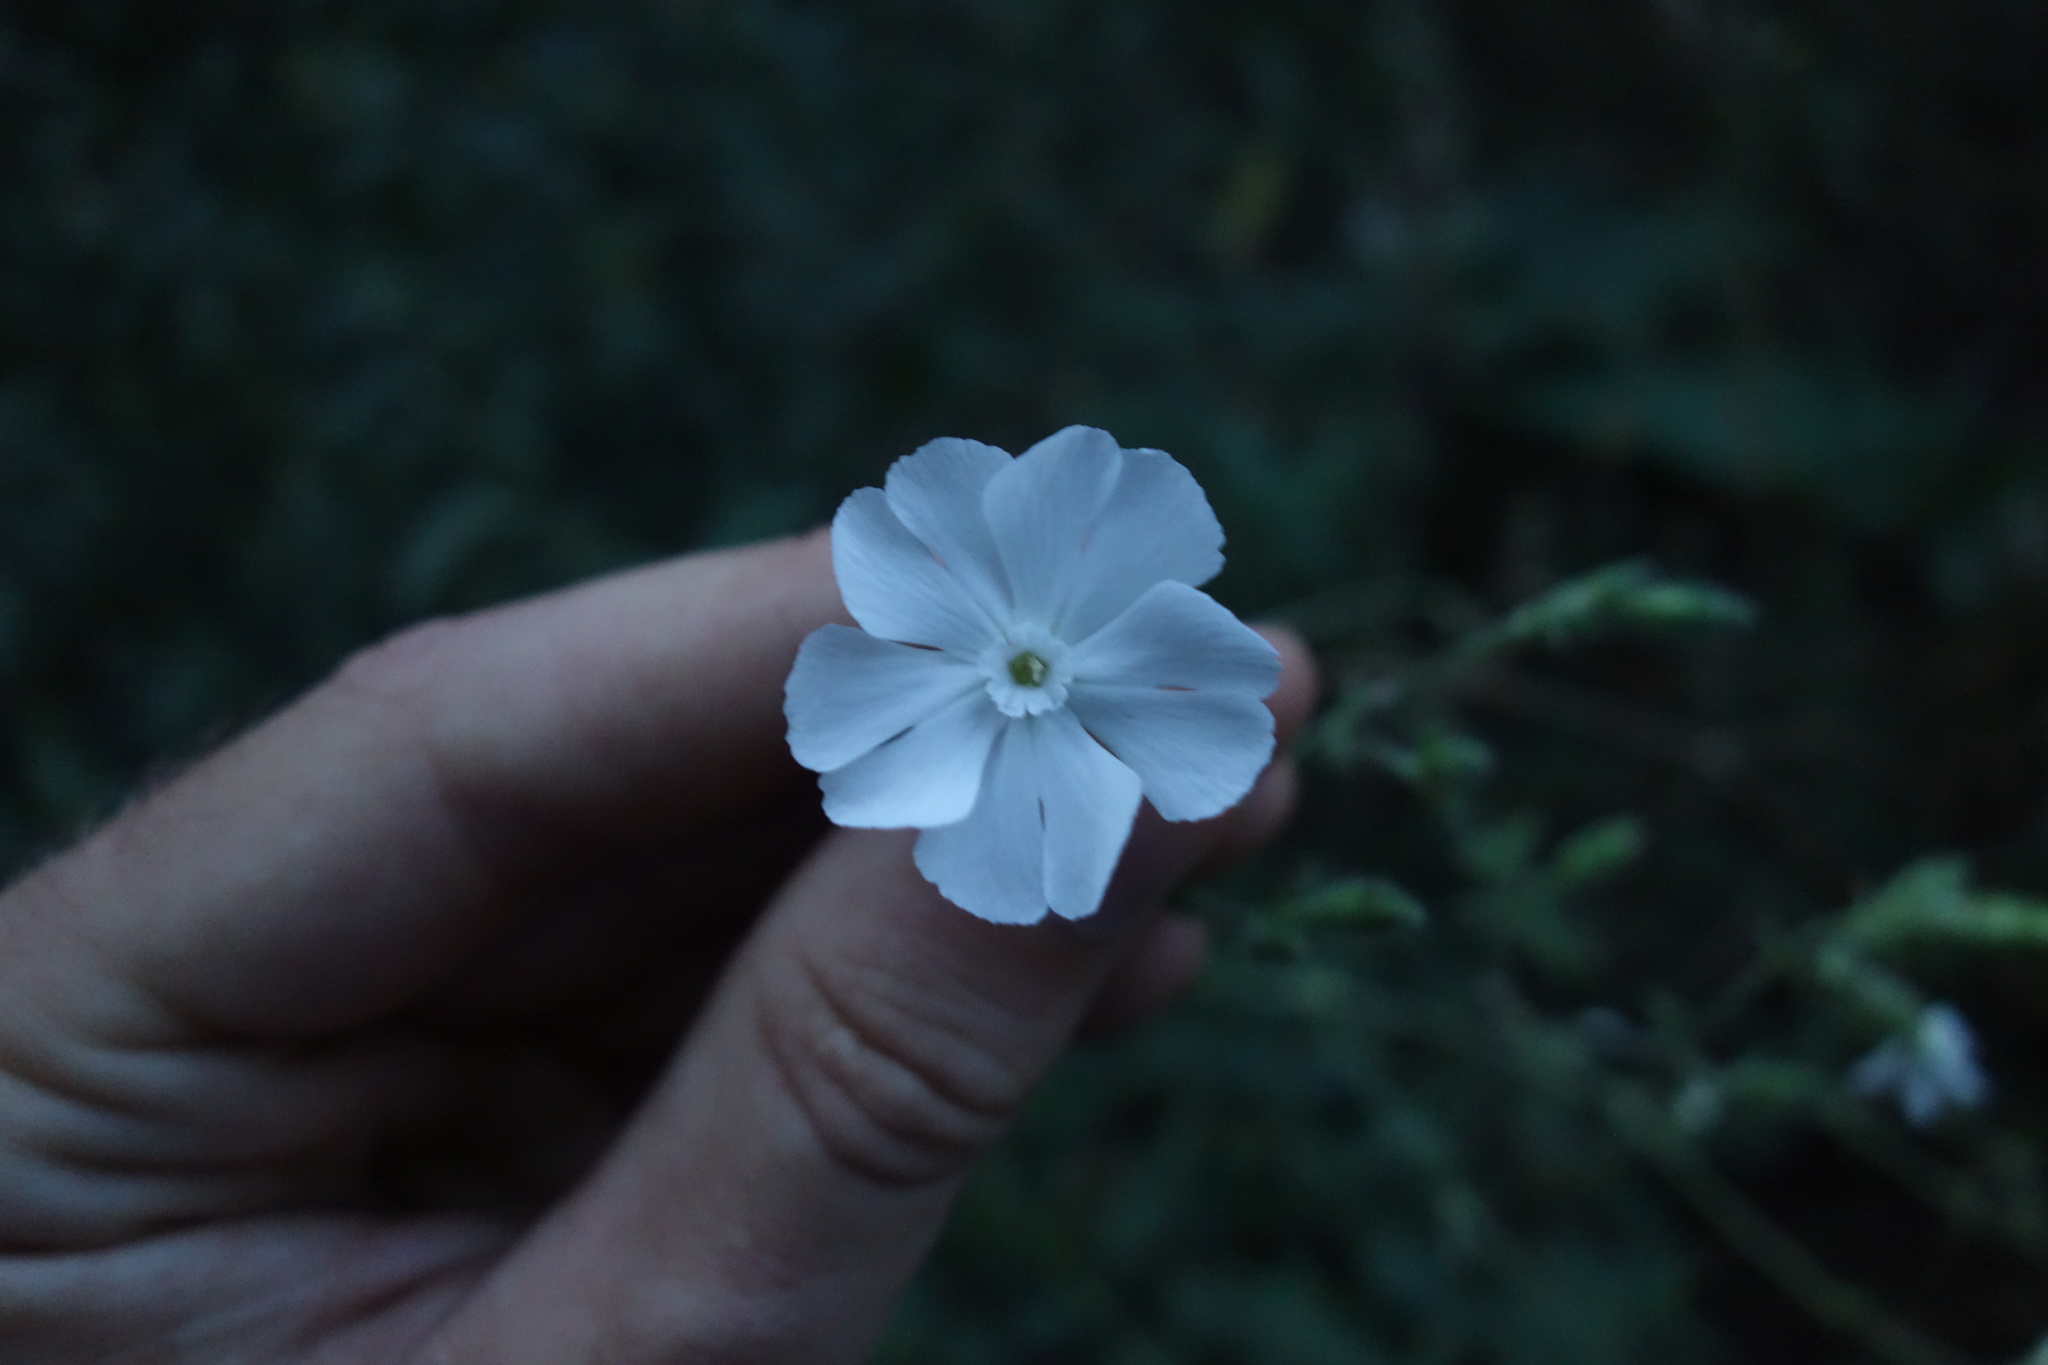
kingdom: Plantae
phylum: Tracheophyta
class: Magnoliopsida
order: Caryophyllales
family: Caryophyllaceae
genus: Silene
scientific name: Silene latifolia
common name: White campion
